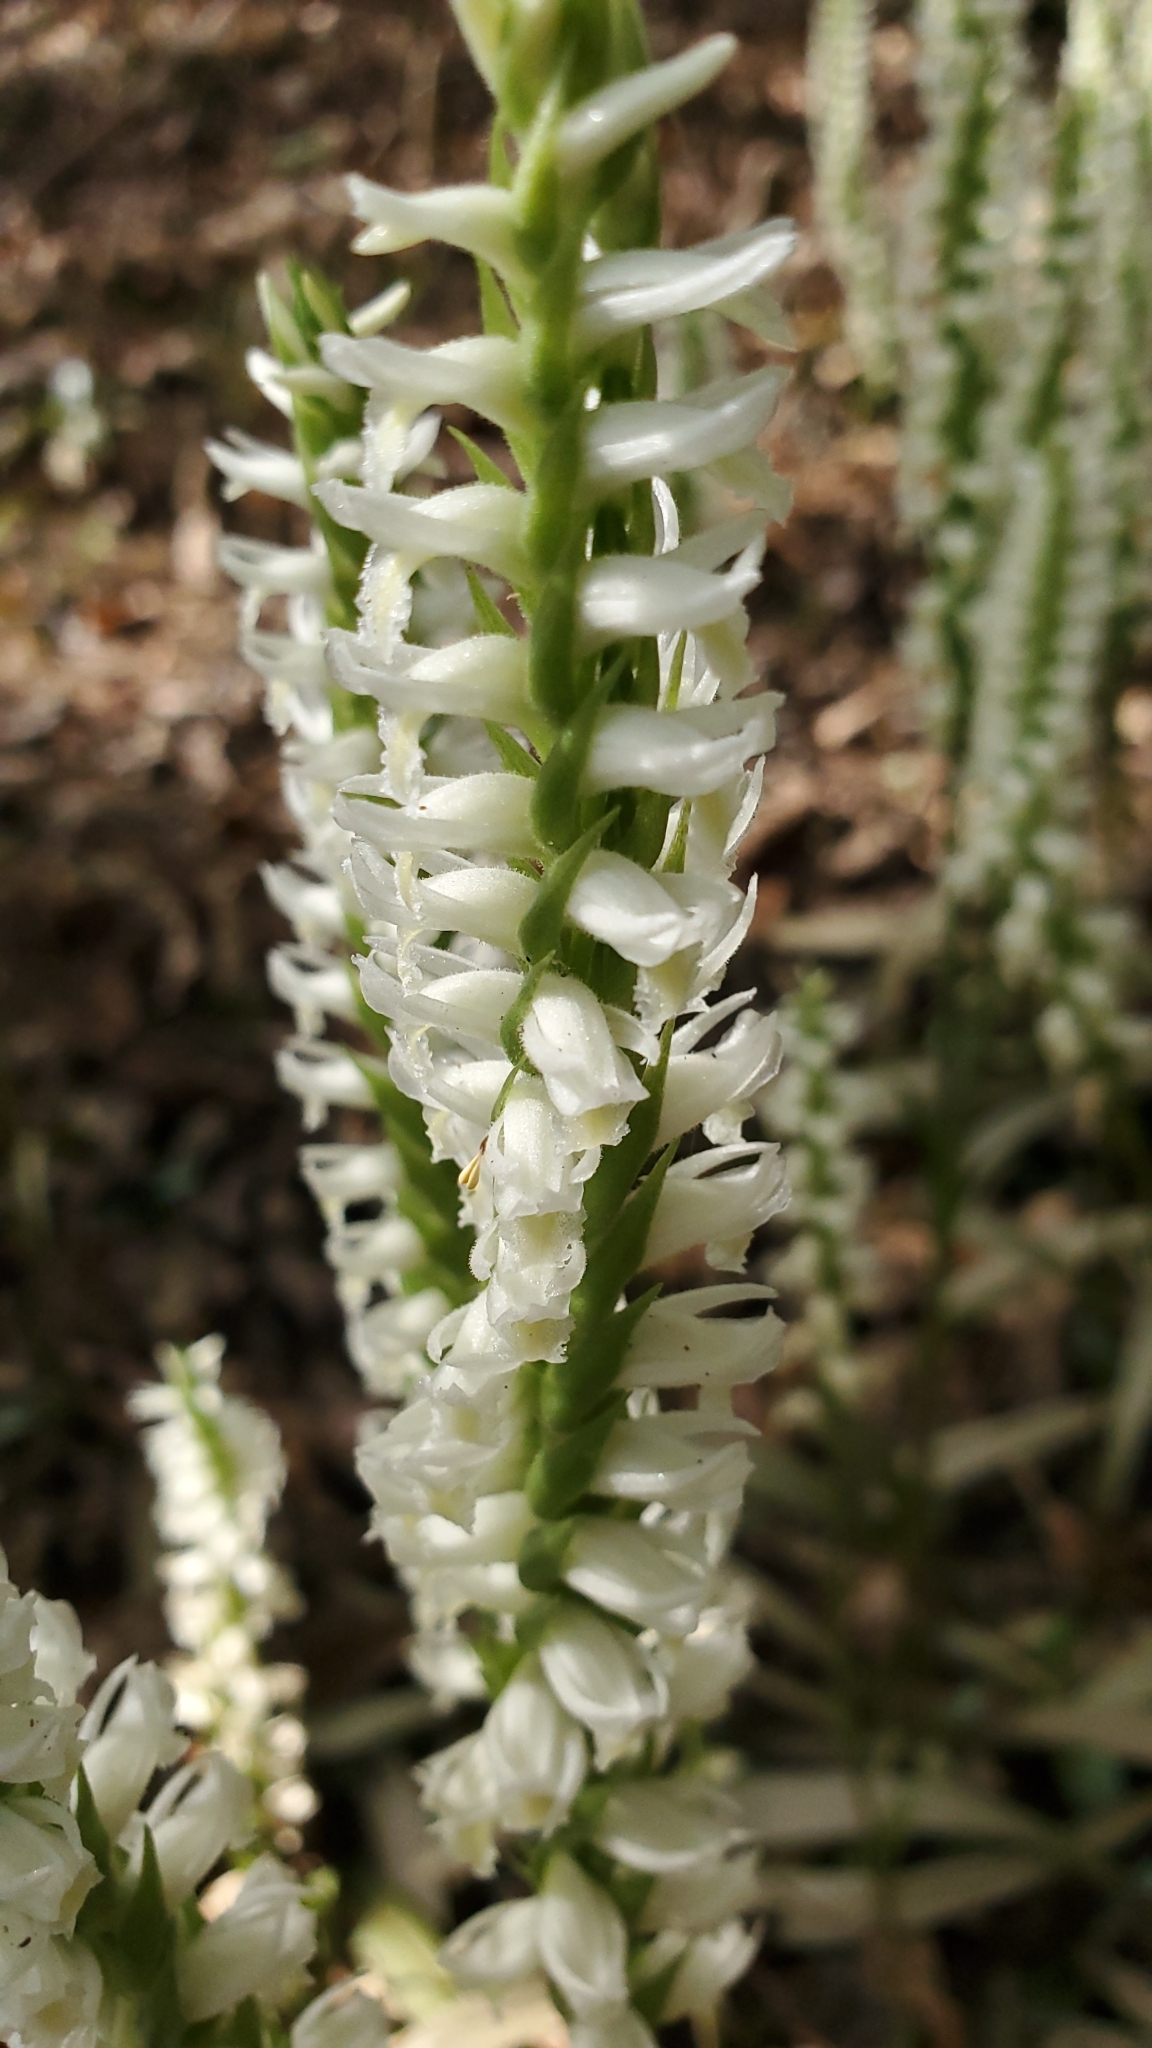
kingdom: Plantae
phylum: Tracheophyta
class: Liliopsida
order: Asparagales
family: Orchidaceae
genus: Spiranthes
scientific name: Spiranthes odorata
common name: Marsh ladies'-tresses
